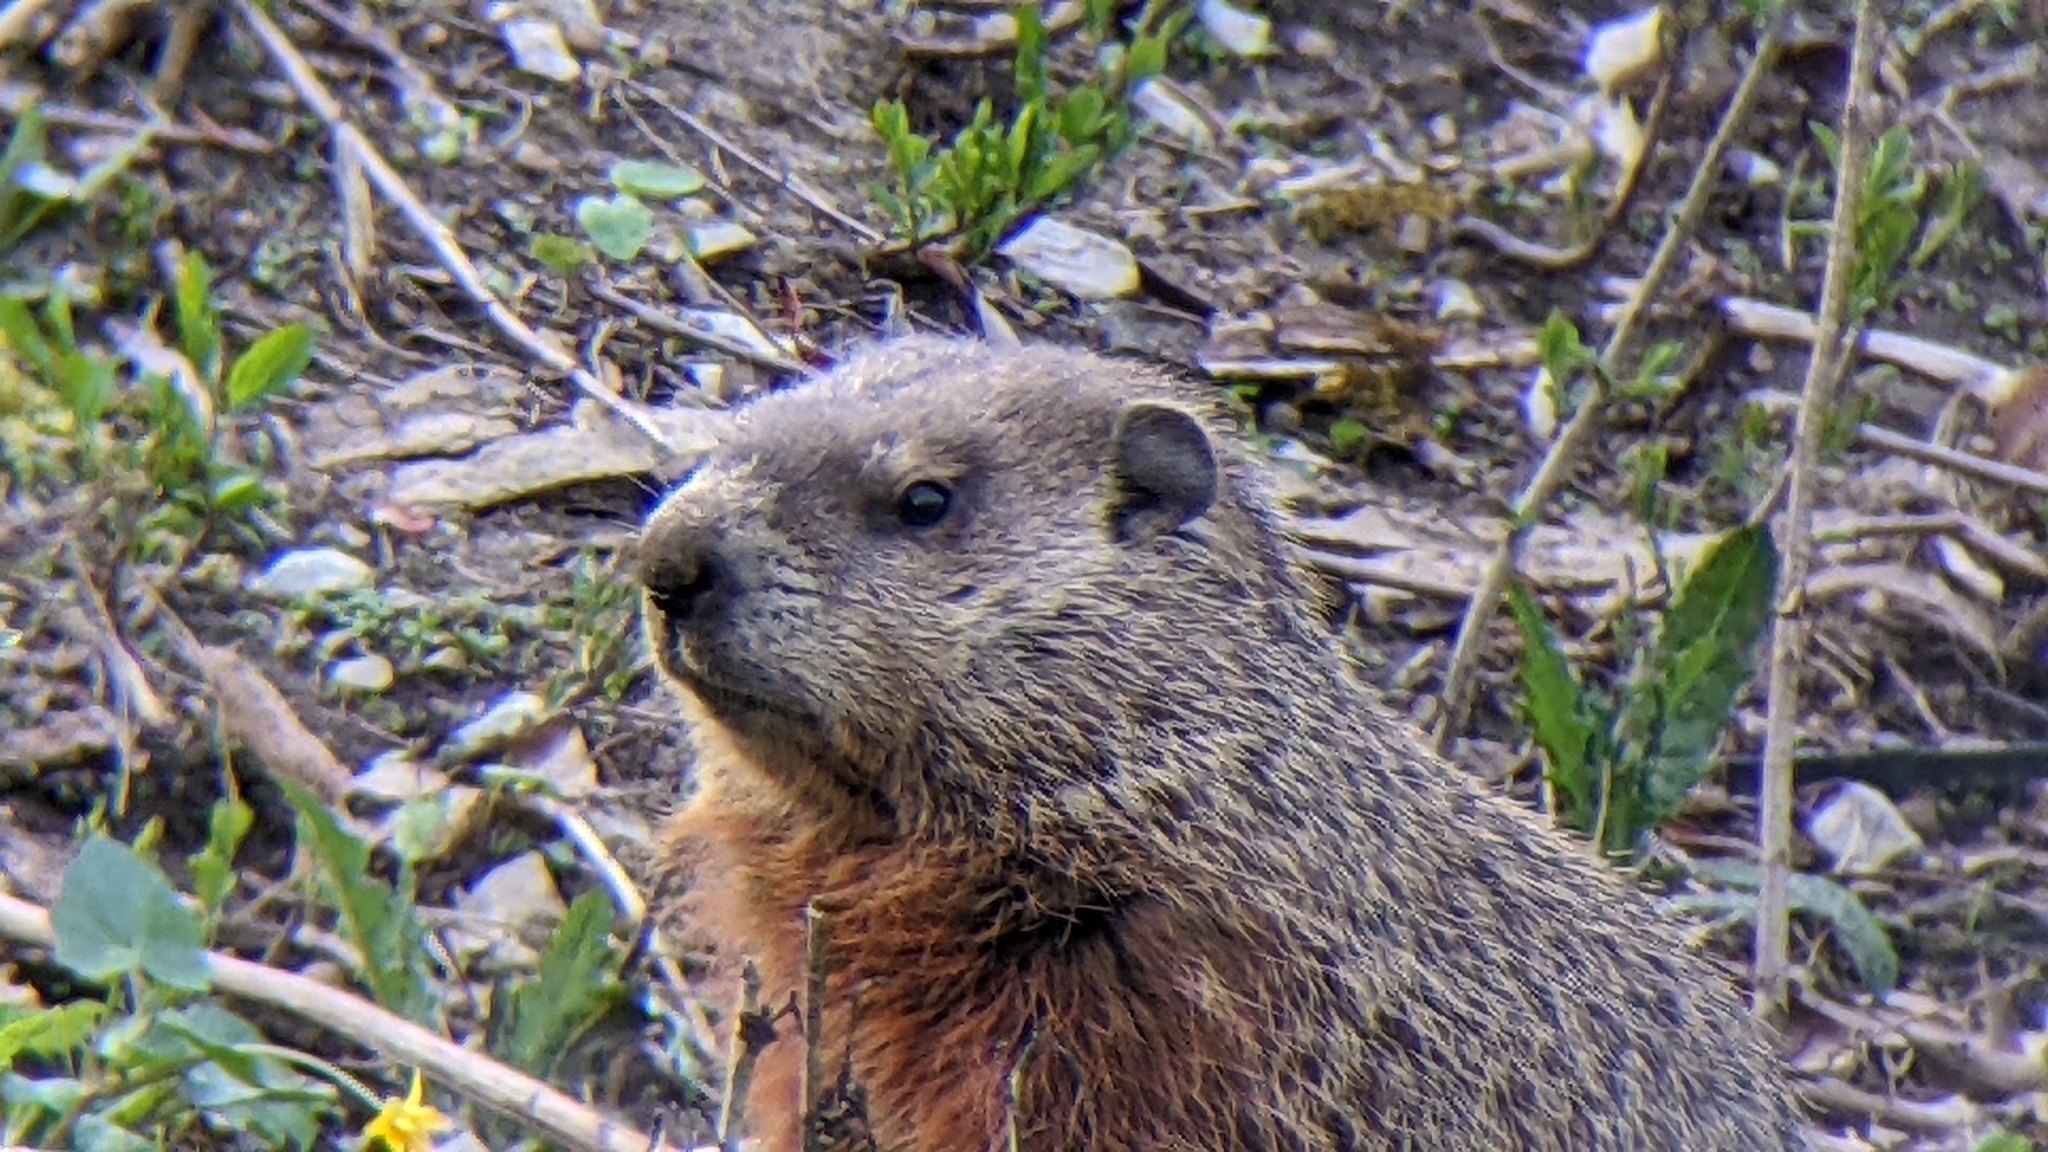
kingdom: Animalia
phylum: Chordata
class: Mammalia
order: Rodentia
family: Sciuridae
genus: Marmota
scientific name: Marmota monax
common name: Groundhog
